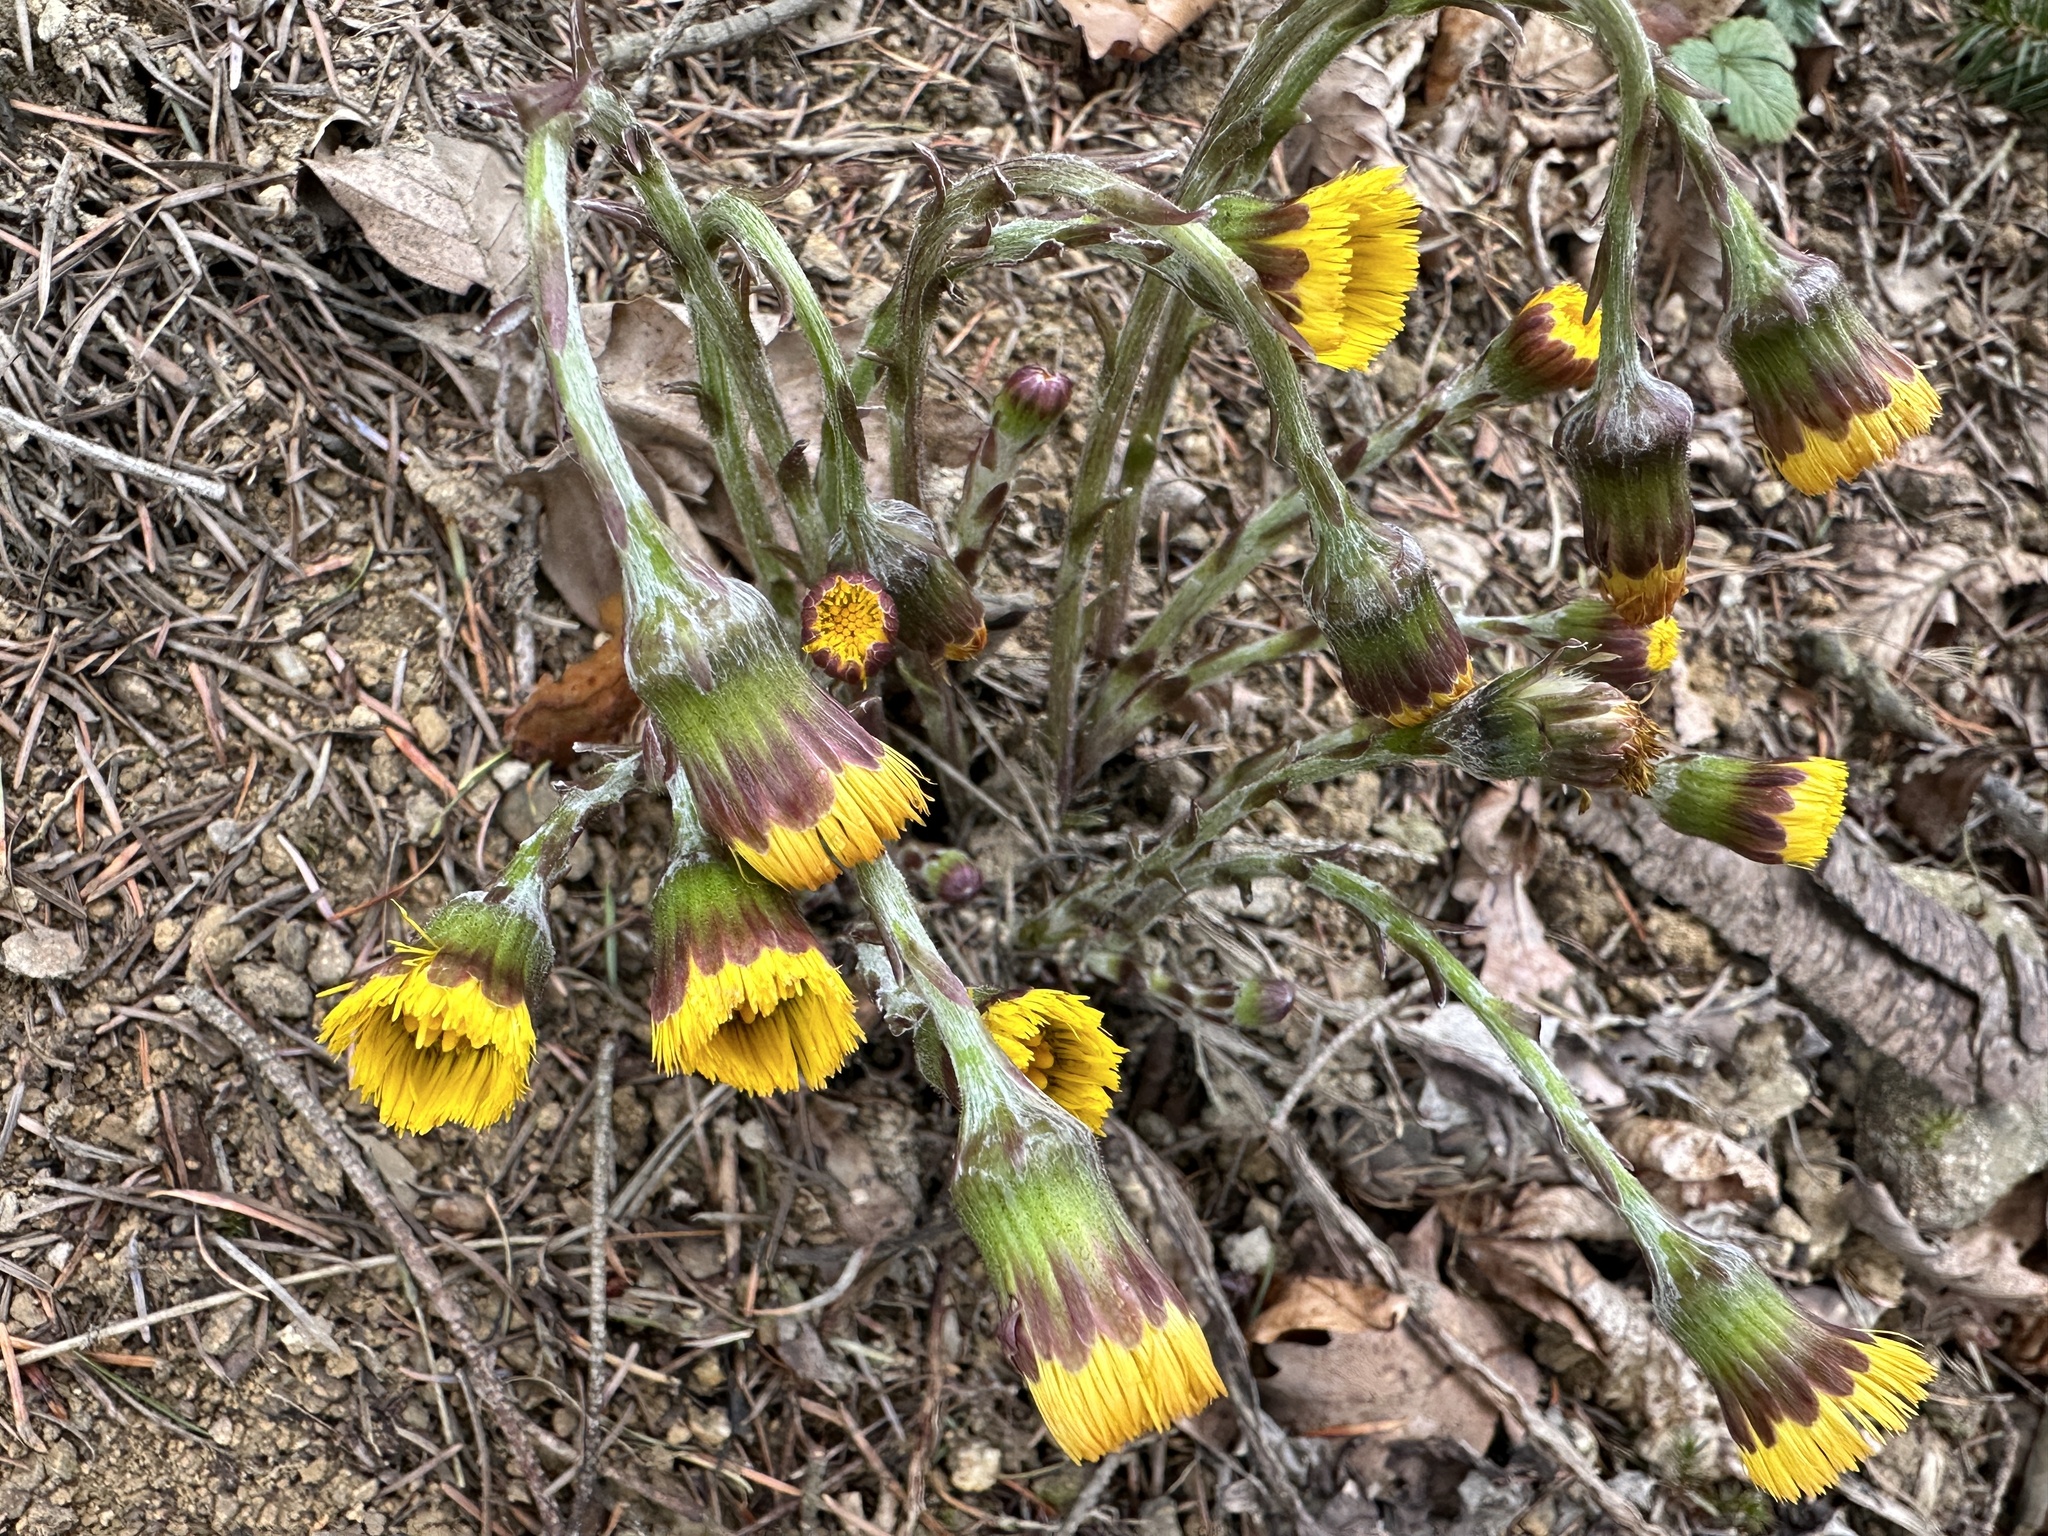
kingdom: Plantae
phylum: Tracheophyta
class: Magnoliopsida
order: Asterales
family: Asteraceae
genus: Tussilago
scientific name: Tussilago farfara
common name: Coltsfoot
